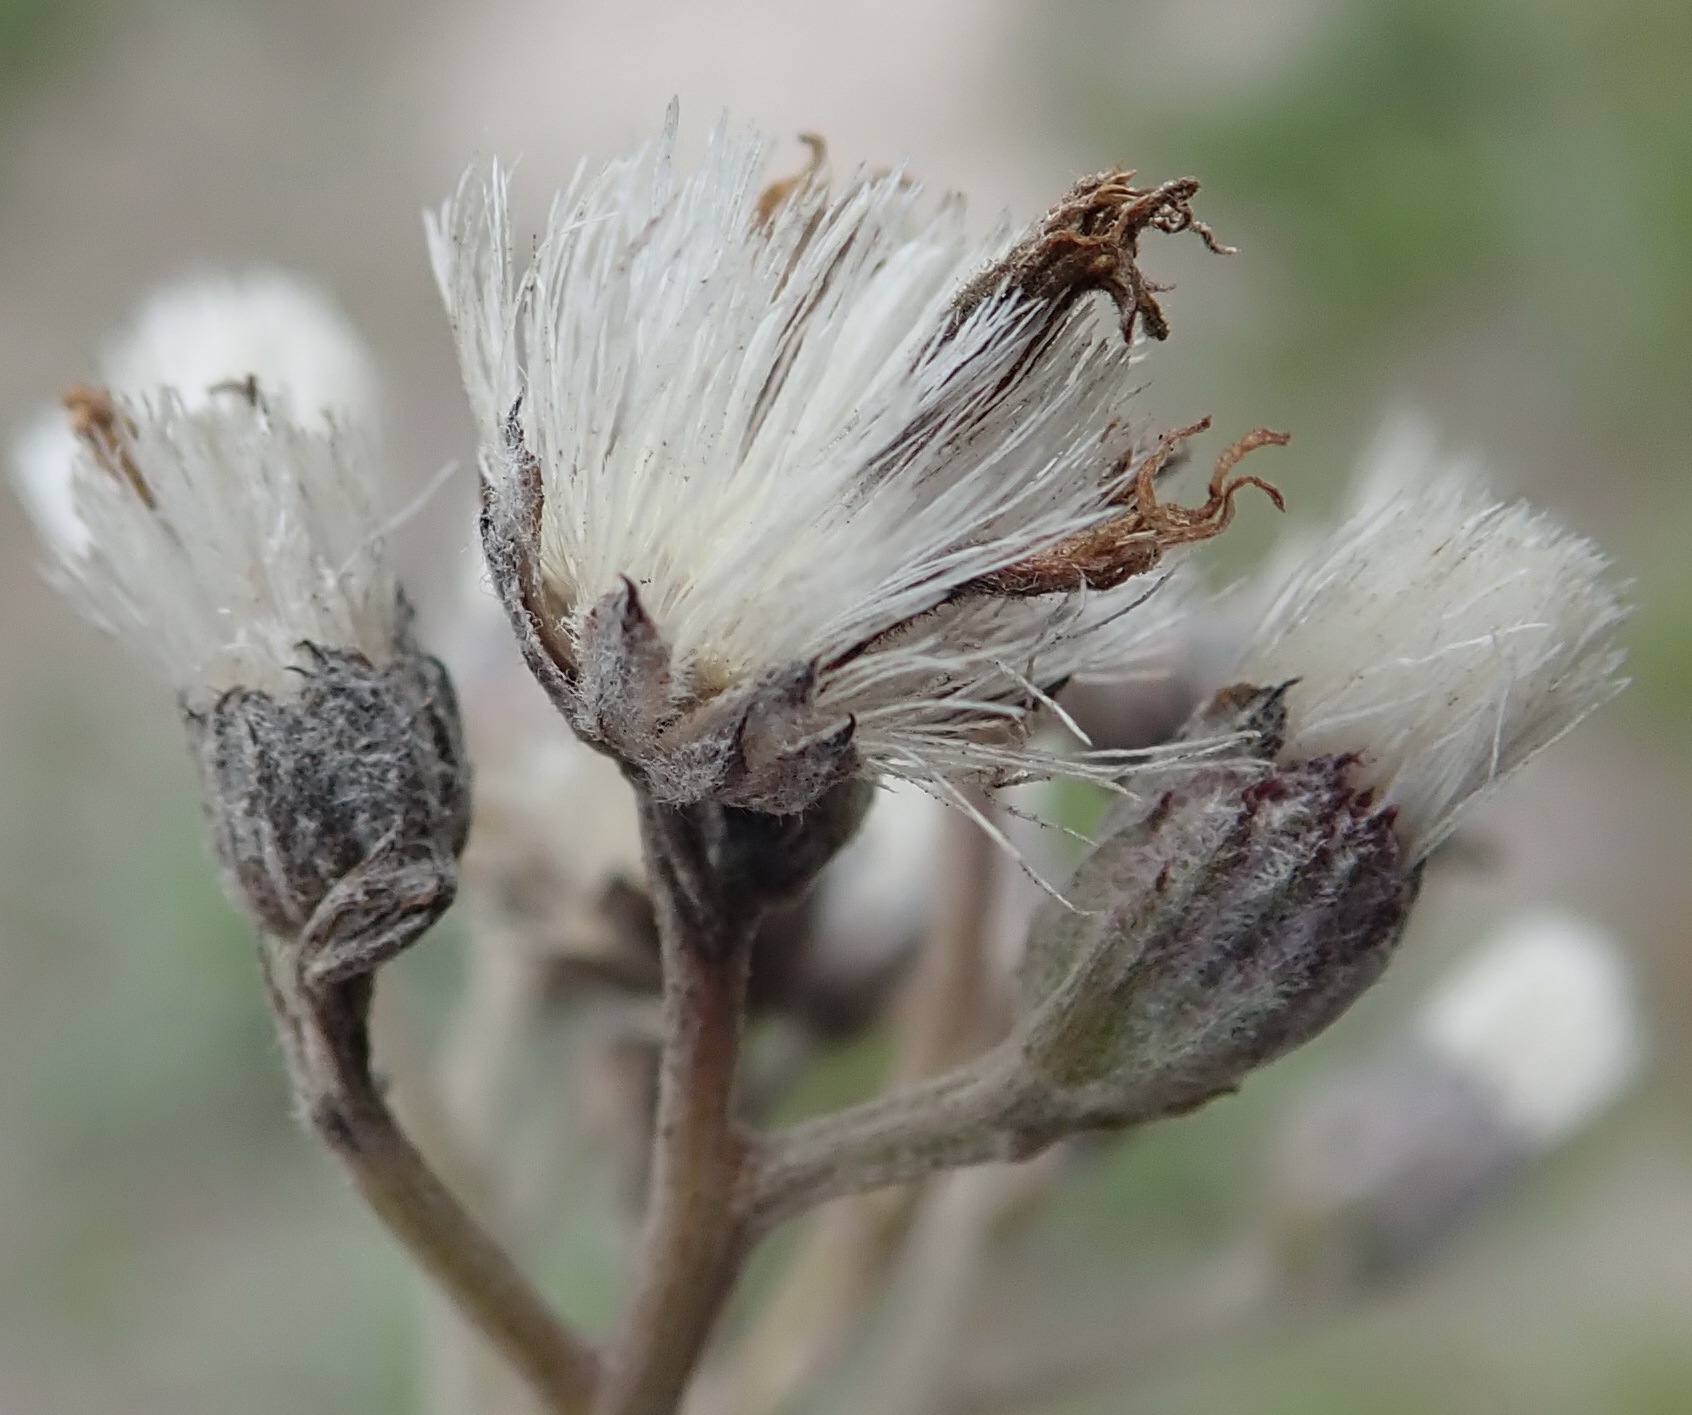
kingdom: Plantae
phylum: Tracheophyta
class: Magnoliopsida
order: Asterales
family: Asteraceae
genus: Hilliardiella
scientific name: Hilliardiella capensis
